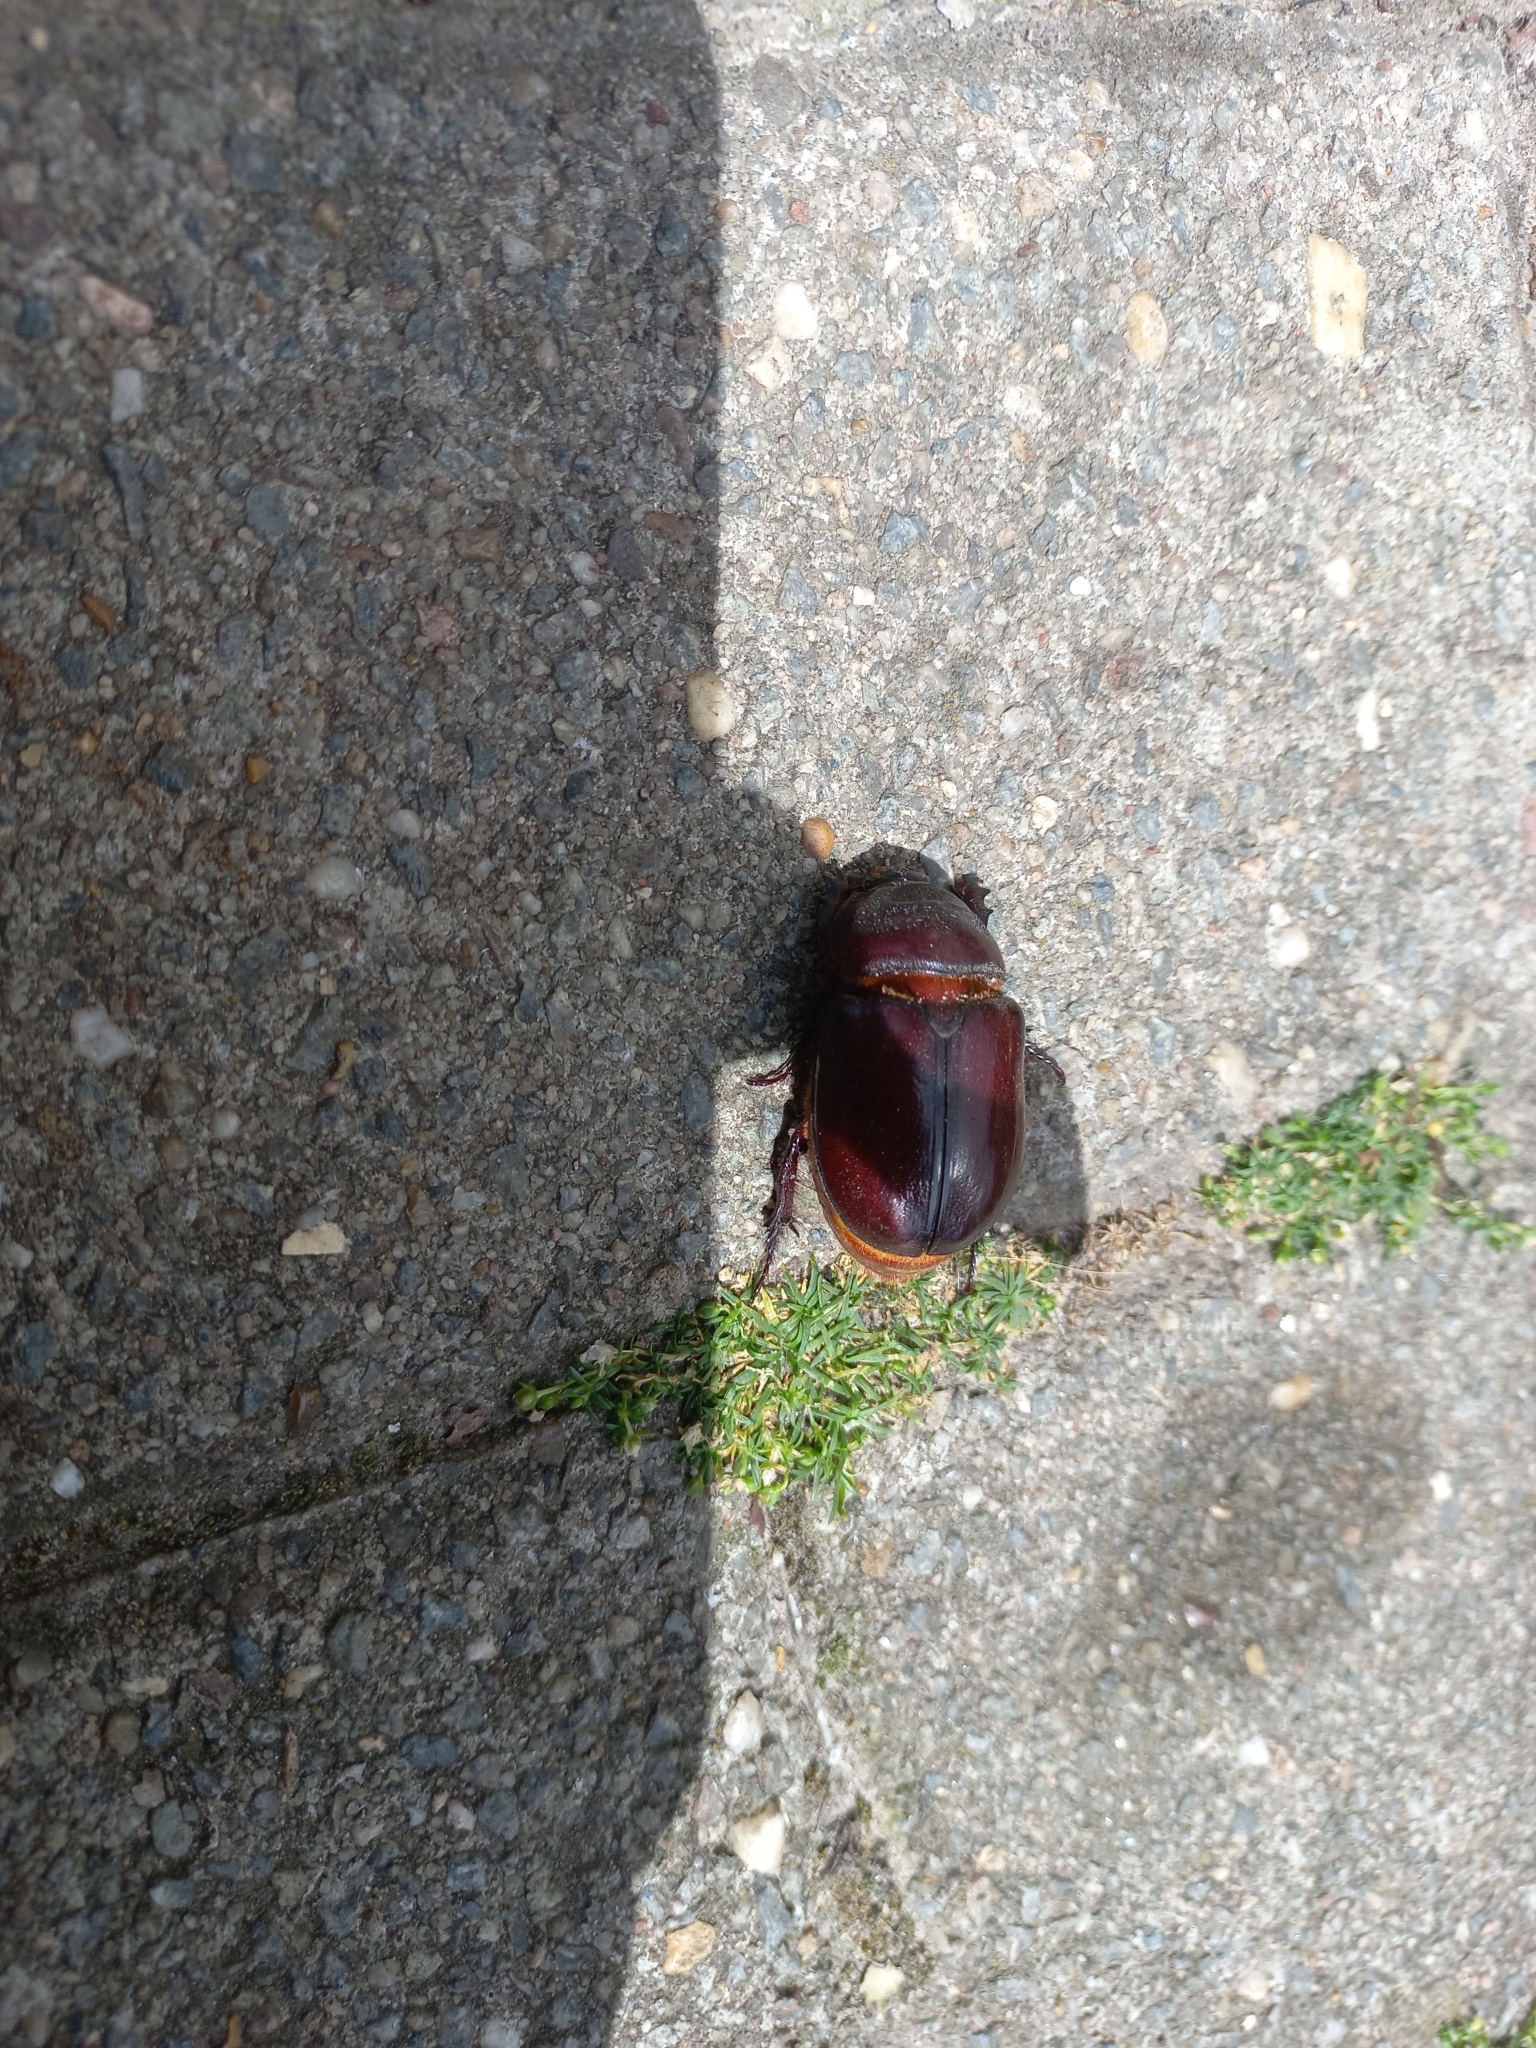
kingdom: Animalia
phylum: Arthropoda
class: Insecta
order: Coleoptera
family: Scarabaeidae
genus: Oryctes
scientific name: Oryctes nasicornis
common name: European rhinoceros beetle
